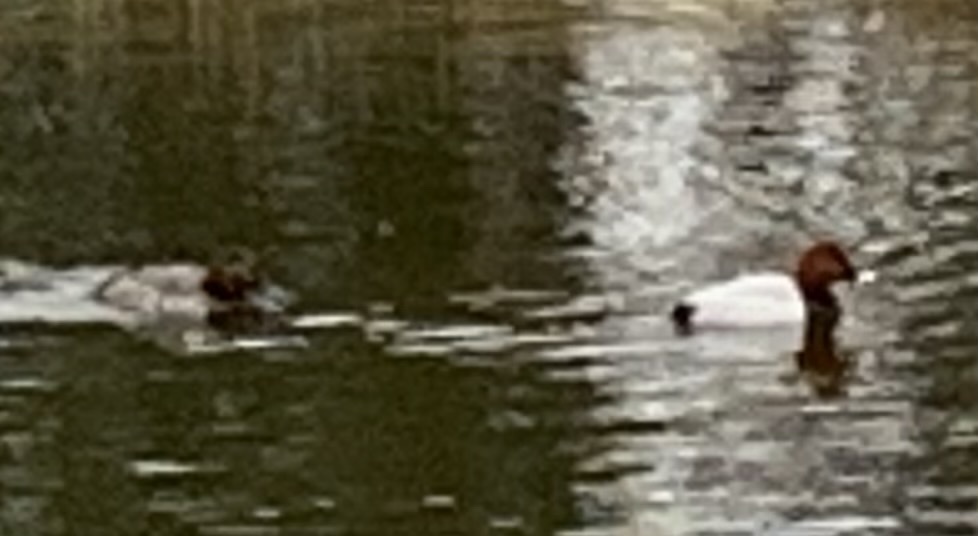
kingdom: Animalia
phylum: Chordata
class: Aves
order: Anseriformes
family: Anatidae
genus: Aythya
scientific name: Aythya ferina
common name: Common pochard
